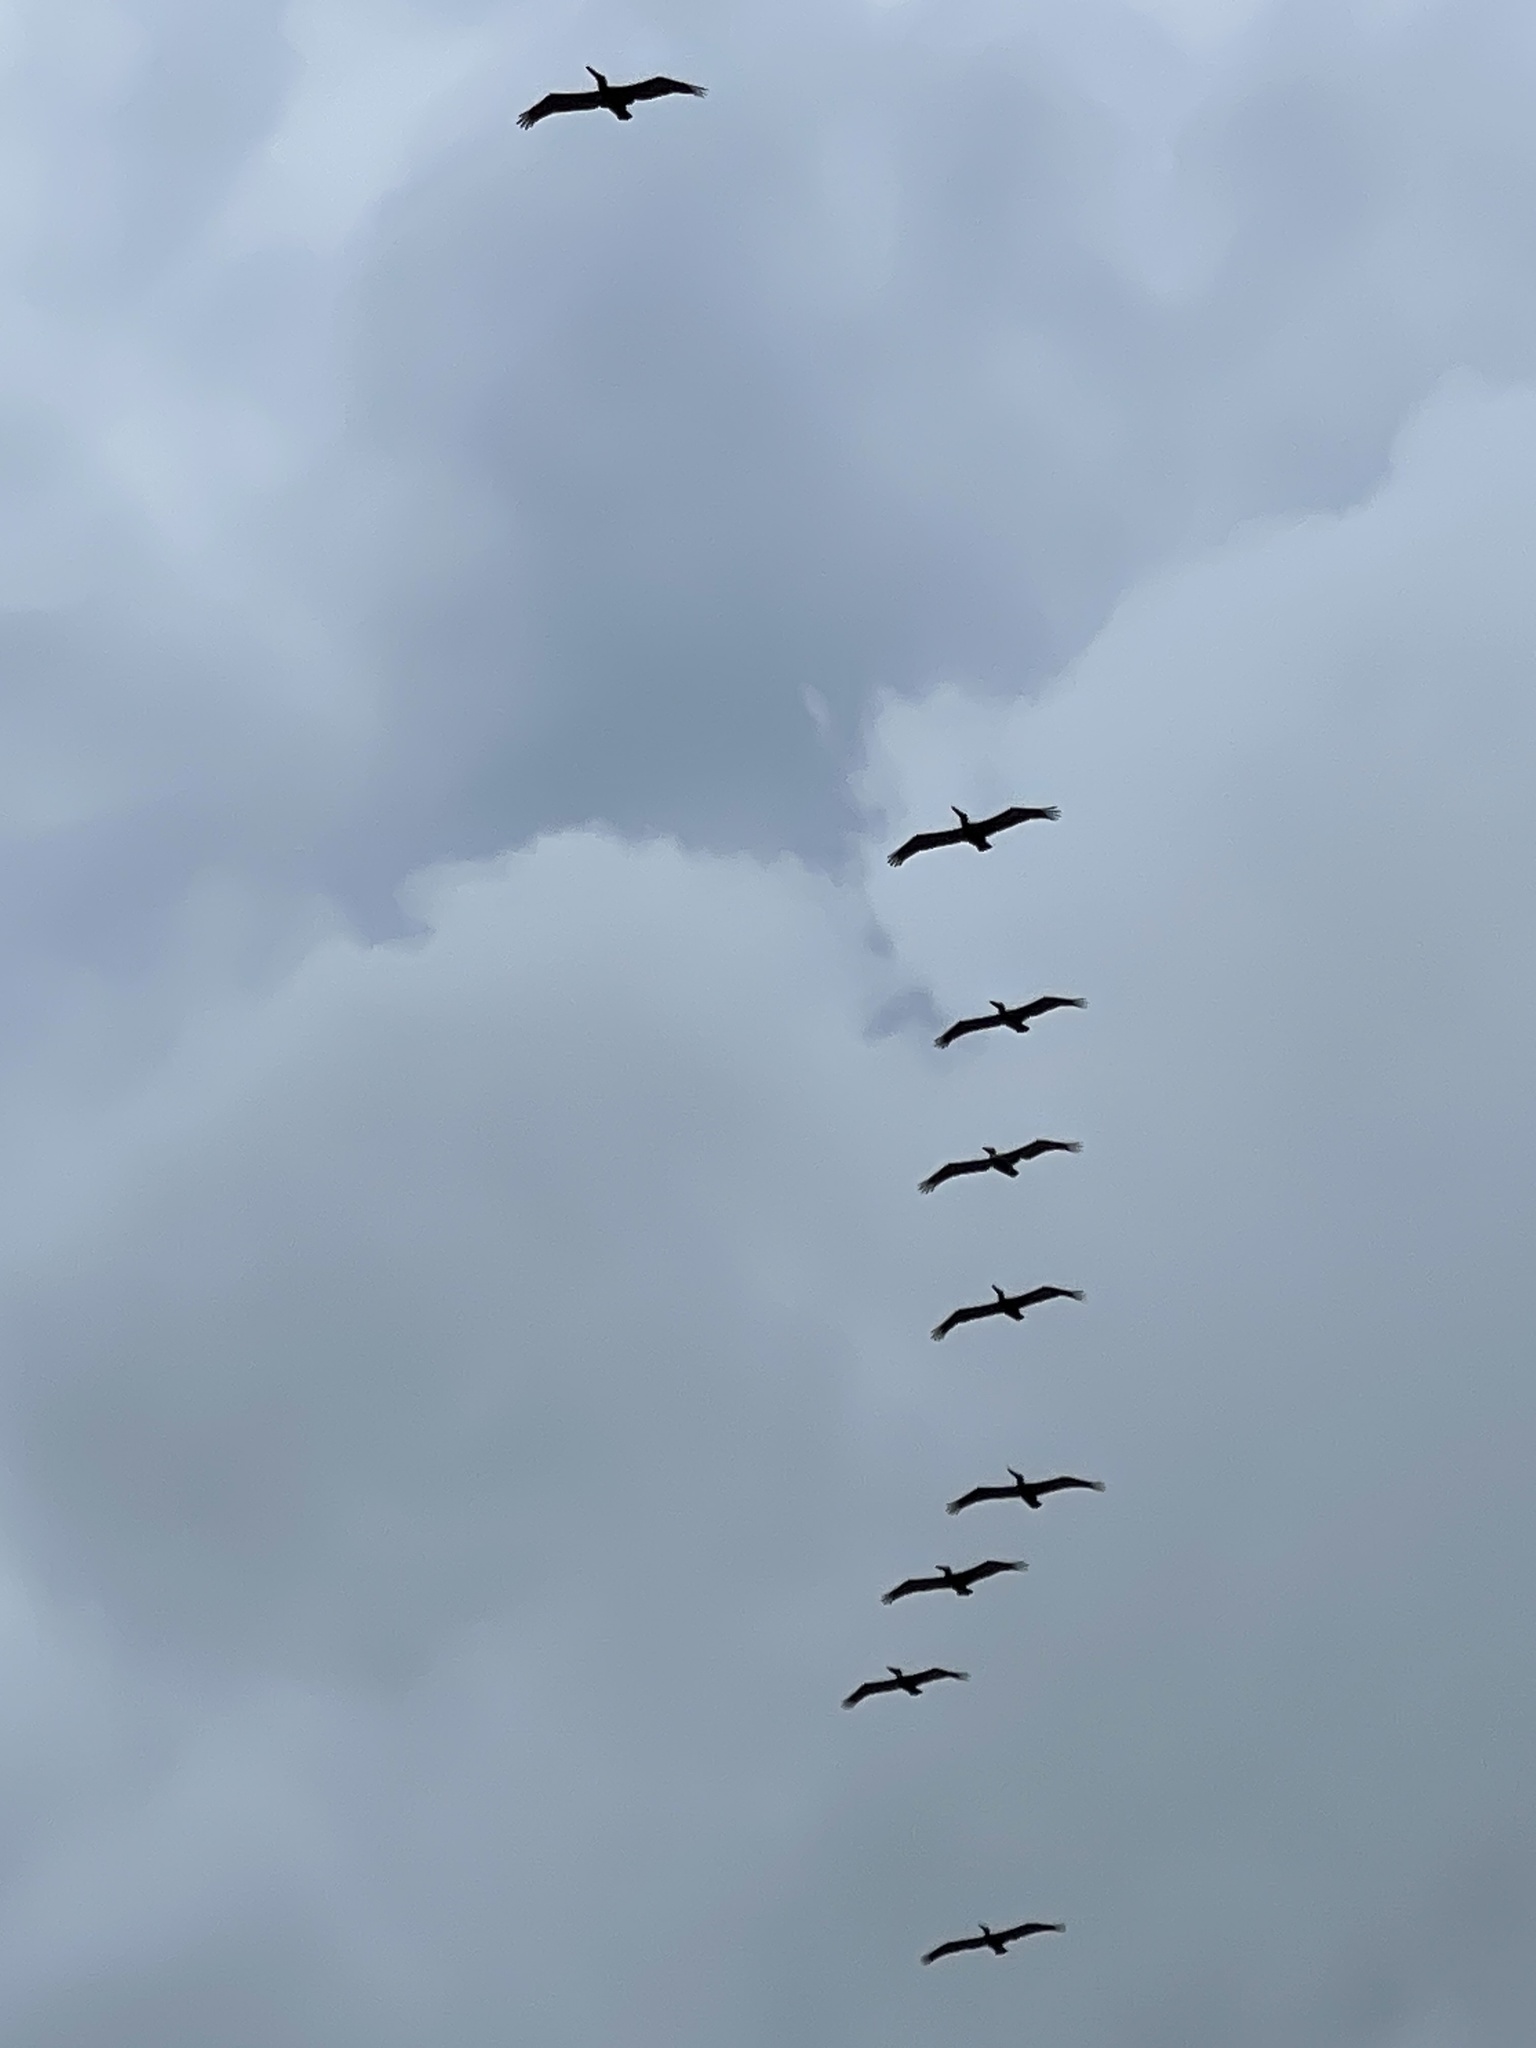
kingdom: Animalia
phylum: Chordata
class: Aves
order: Pelecaniformes
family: Pelecanidae
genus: Pelecanus
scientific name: Pelecanus occidentalis
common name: Brown pelican
